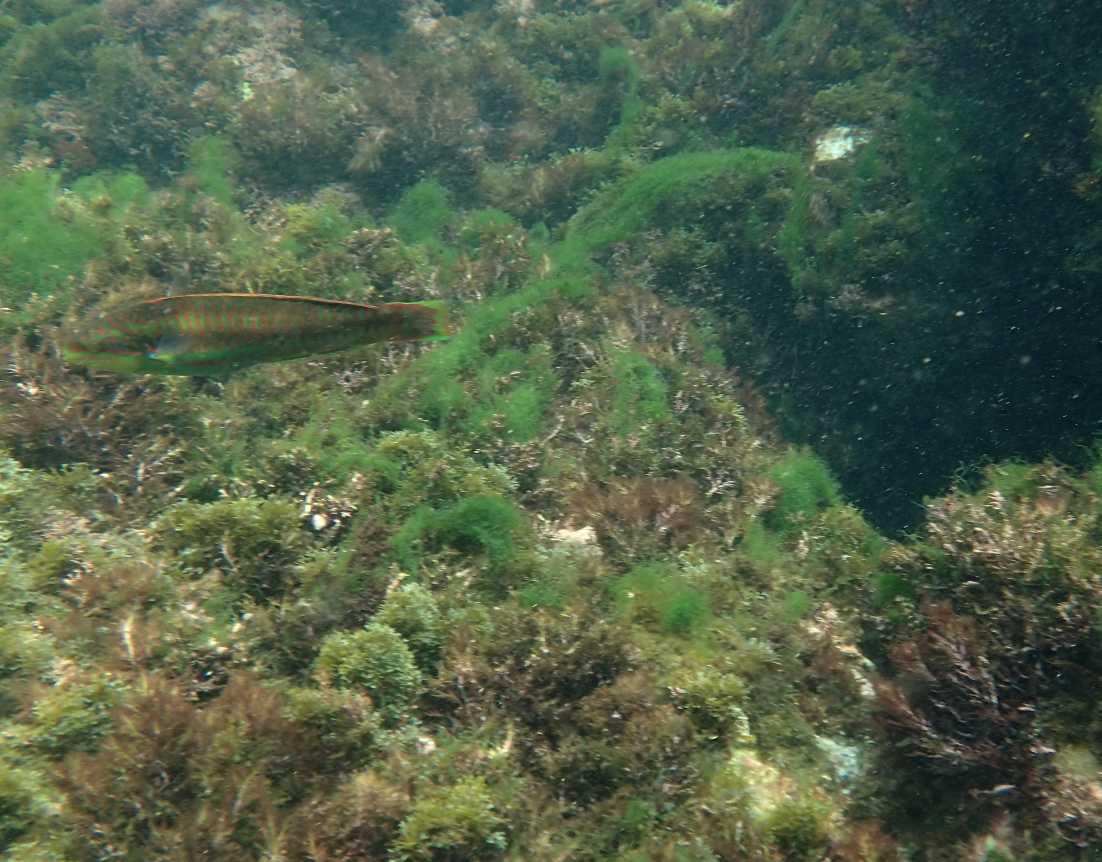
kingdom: Animalia
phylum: Chordata
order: Perciformes
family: Labridae
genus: Thalassoma
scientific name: Thalassoma cupido
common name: Cupid wrasse
